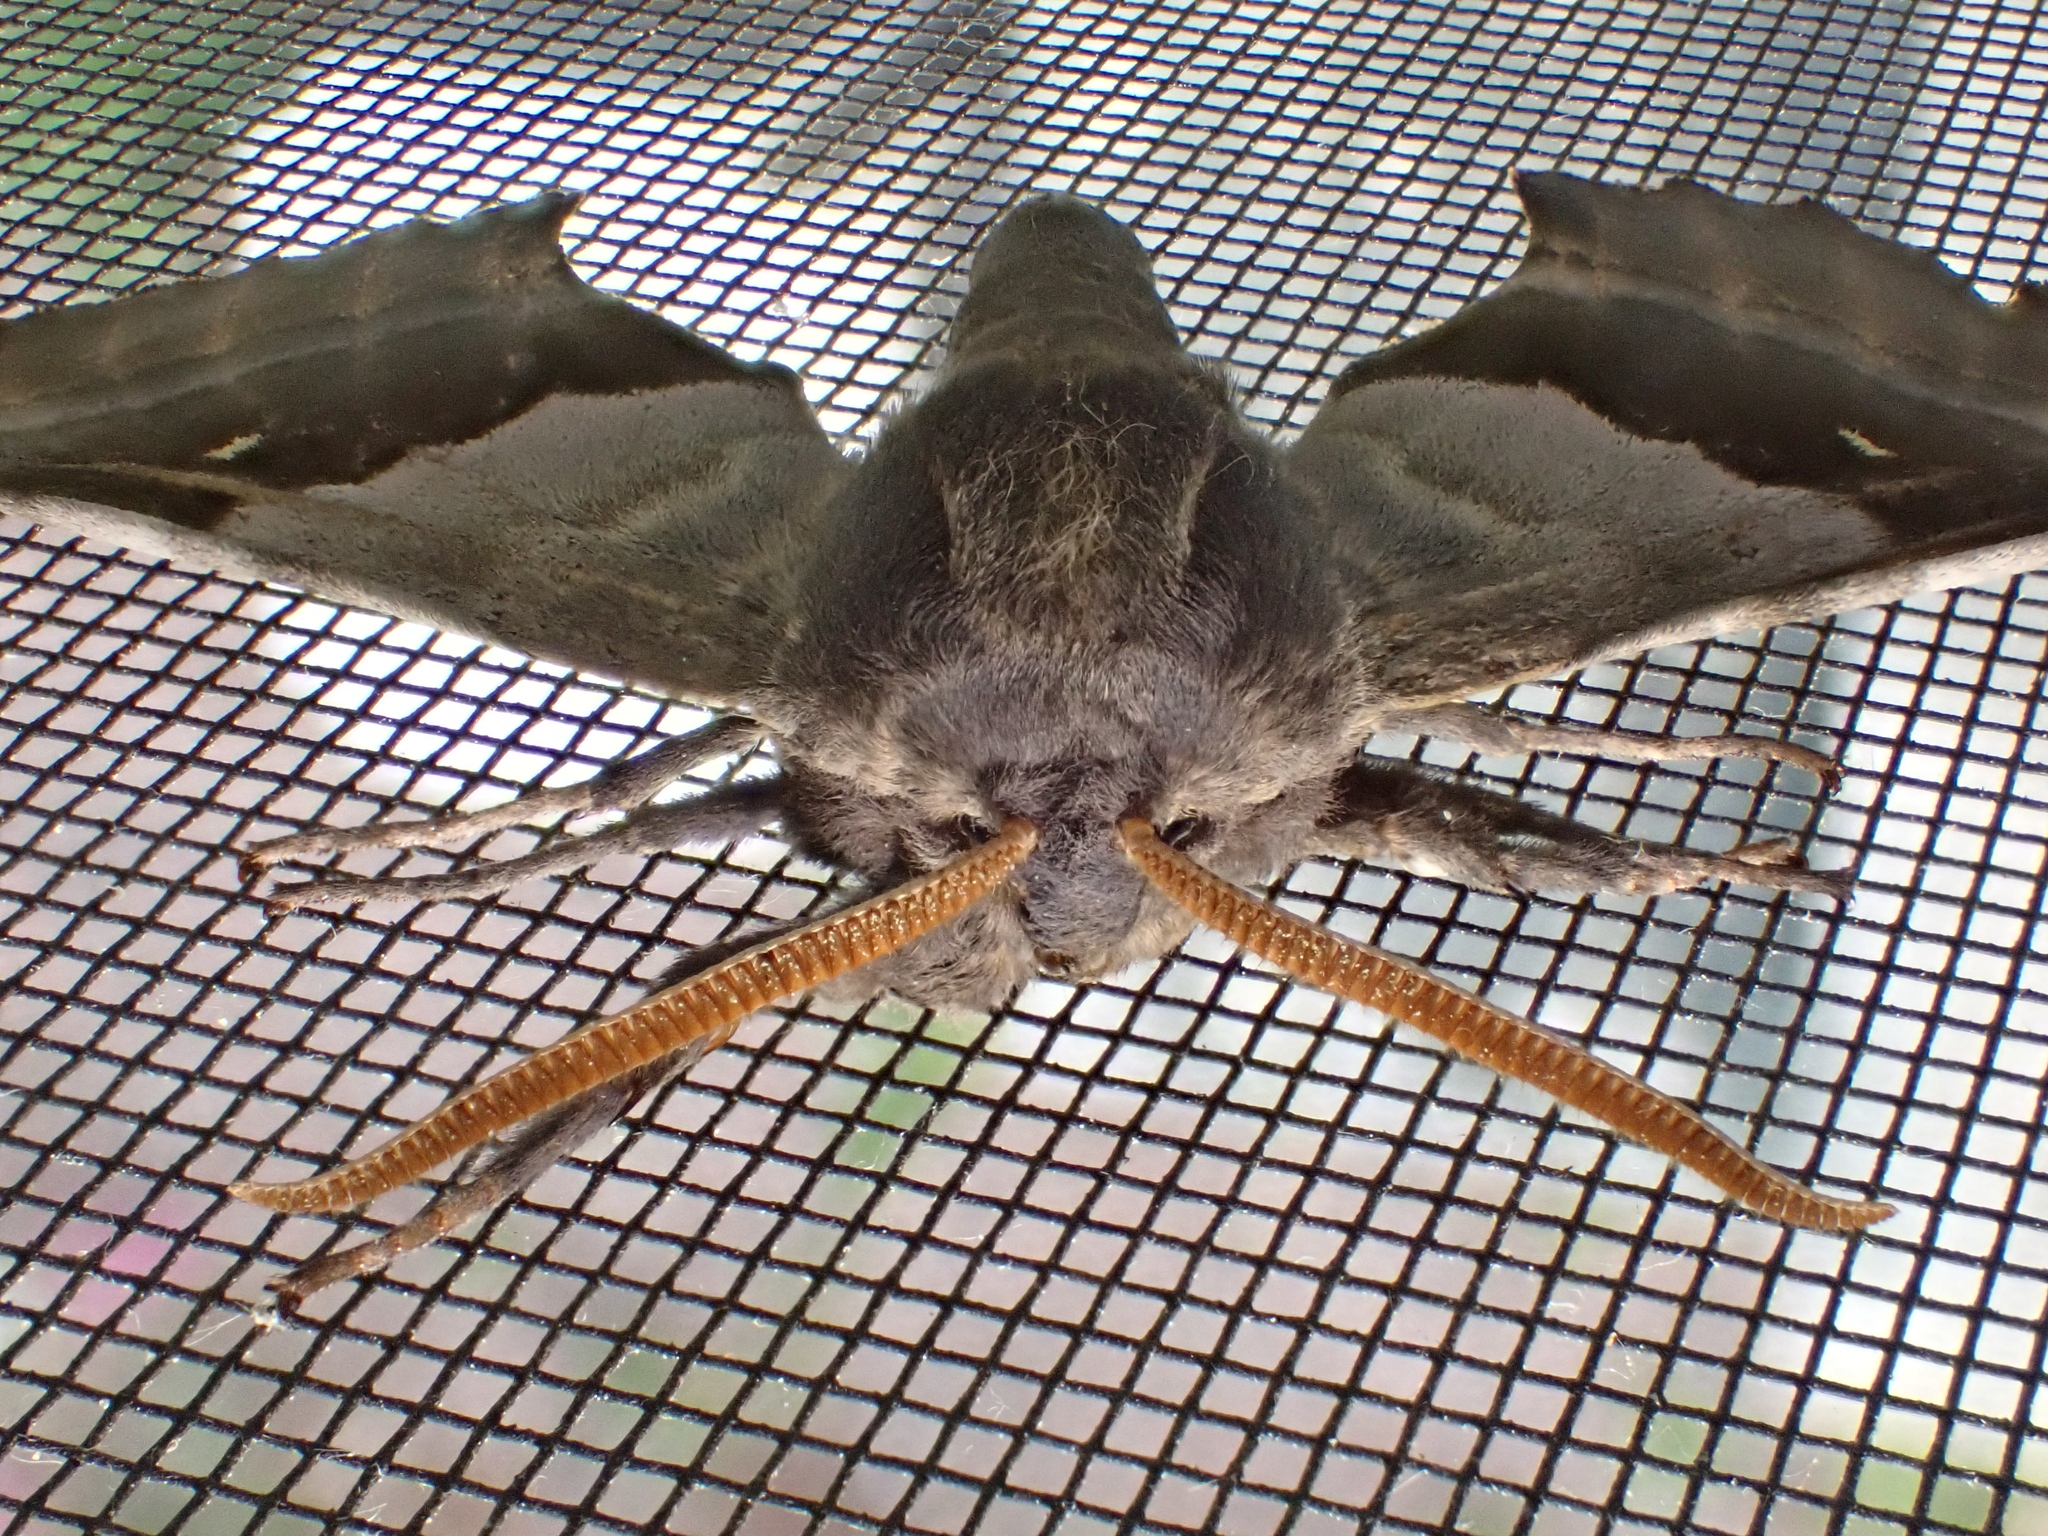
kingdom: Animalia
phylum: Arthropoda
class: Insecta
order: Lepidoptera
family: Sphingidae
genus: Pachysphinx
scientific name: Pachysphinx modesta
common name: Big poplar sphinx
